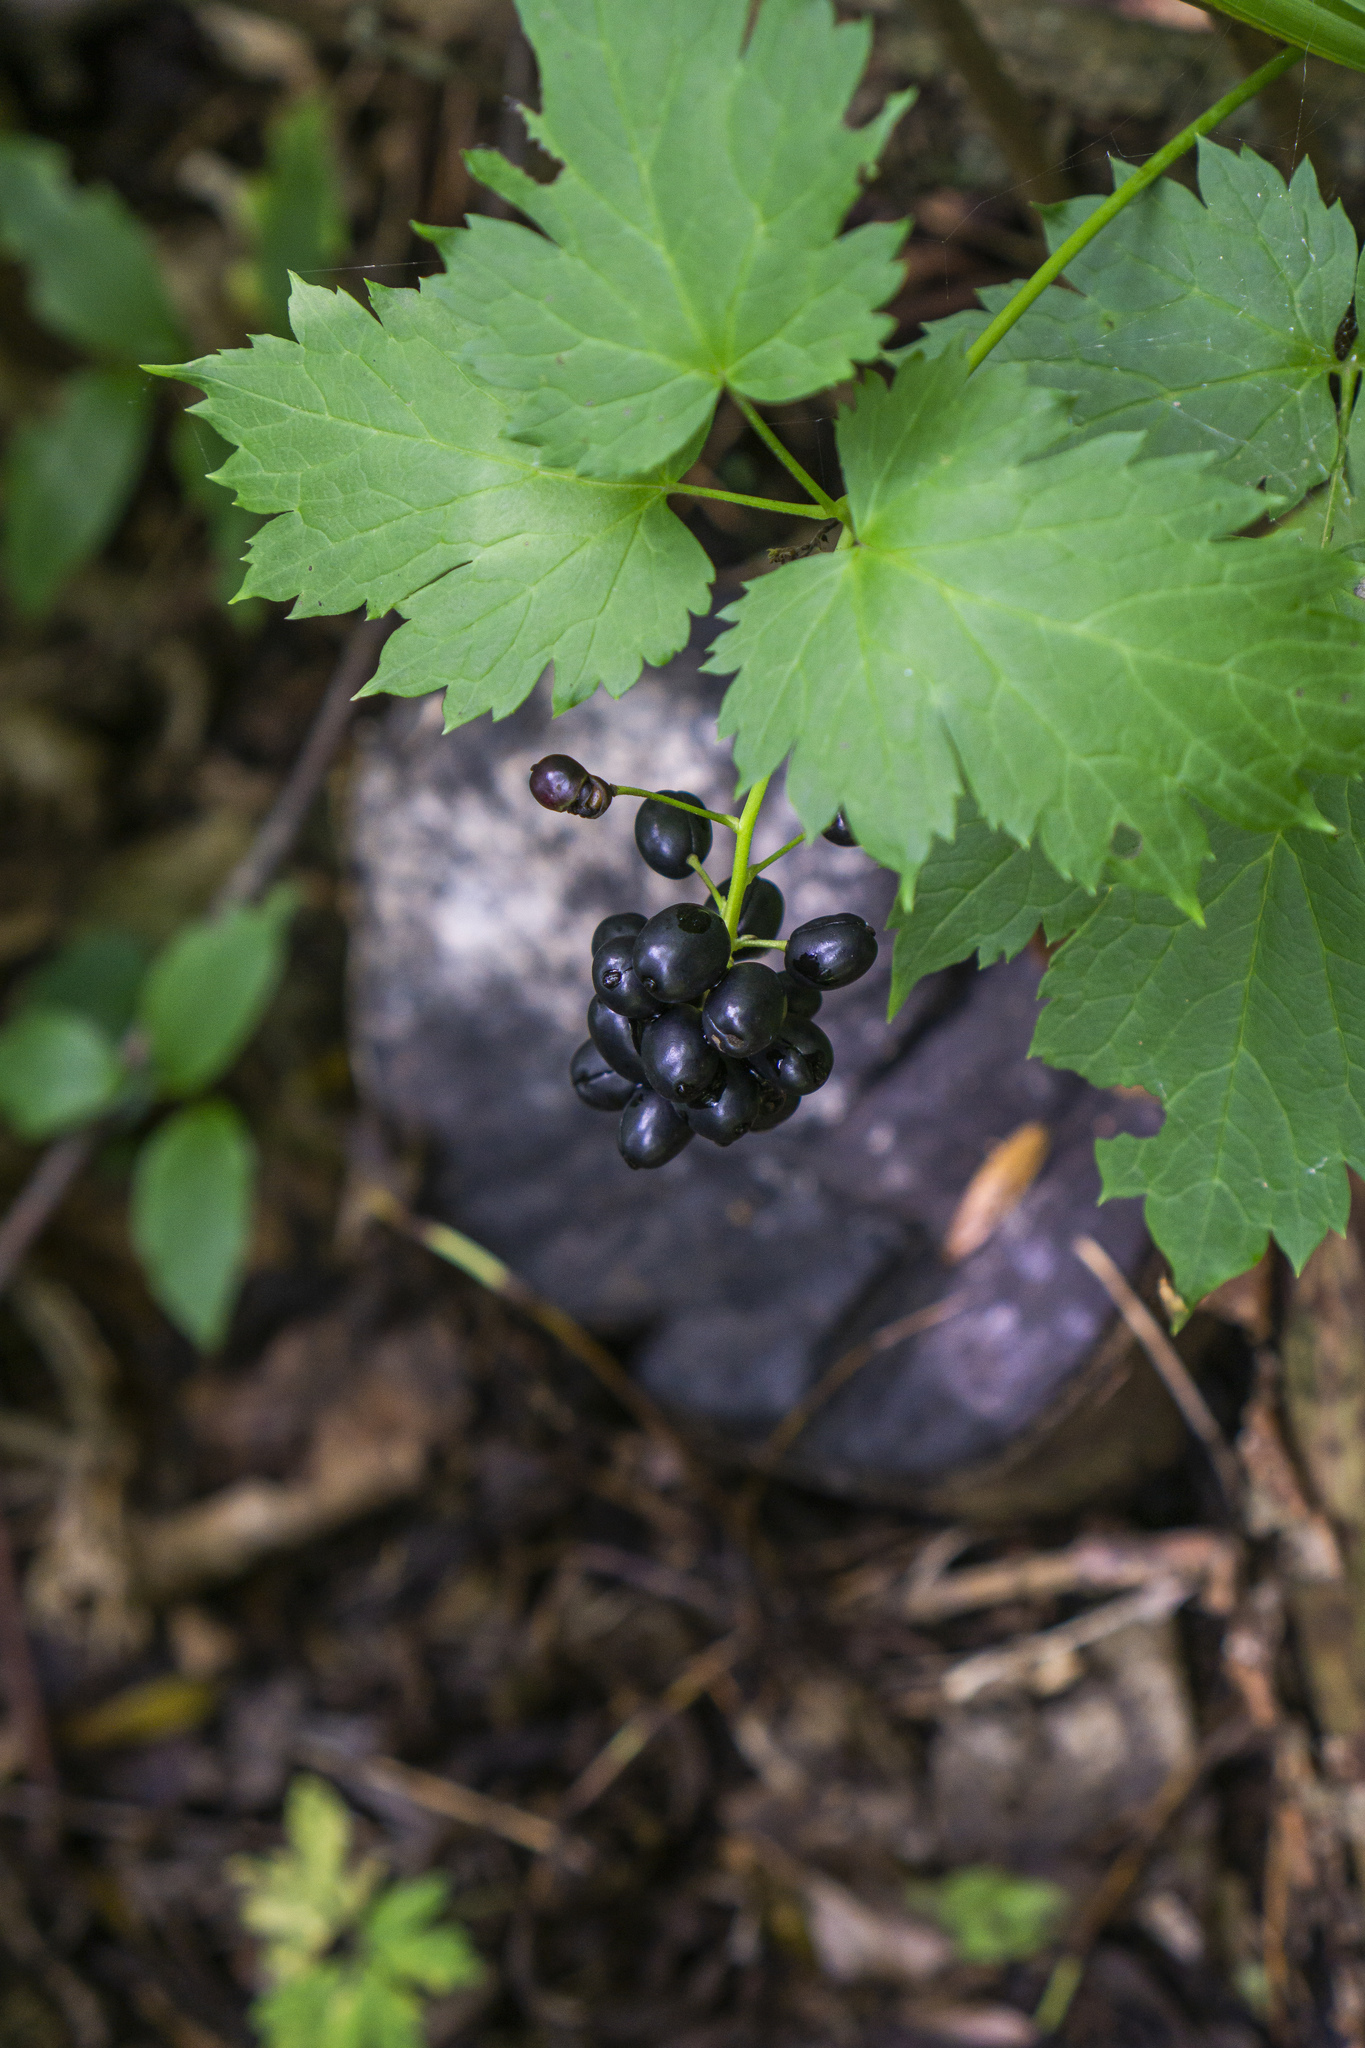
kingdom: Plantae
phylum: Tracheophyta
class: Magnoliopsida
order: Ranunculales
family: Ranunculaceae
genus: Actaea
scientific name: Actaea spicata
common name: Baneberry
